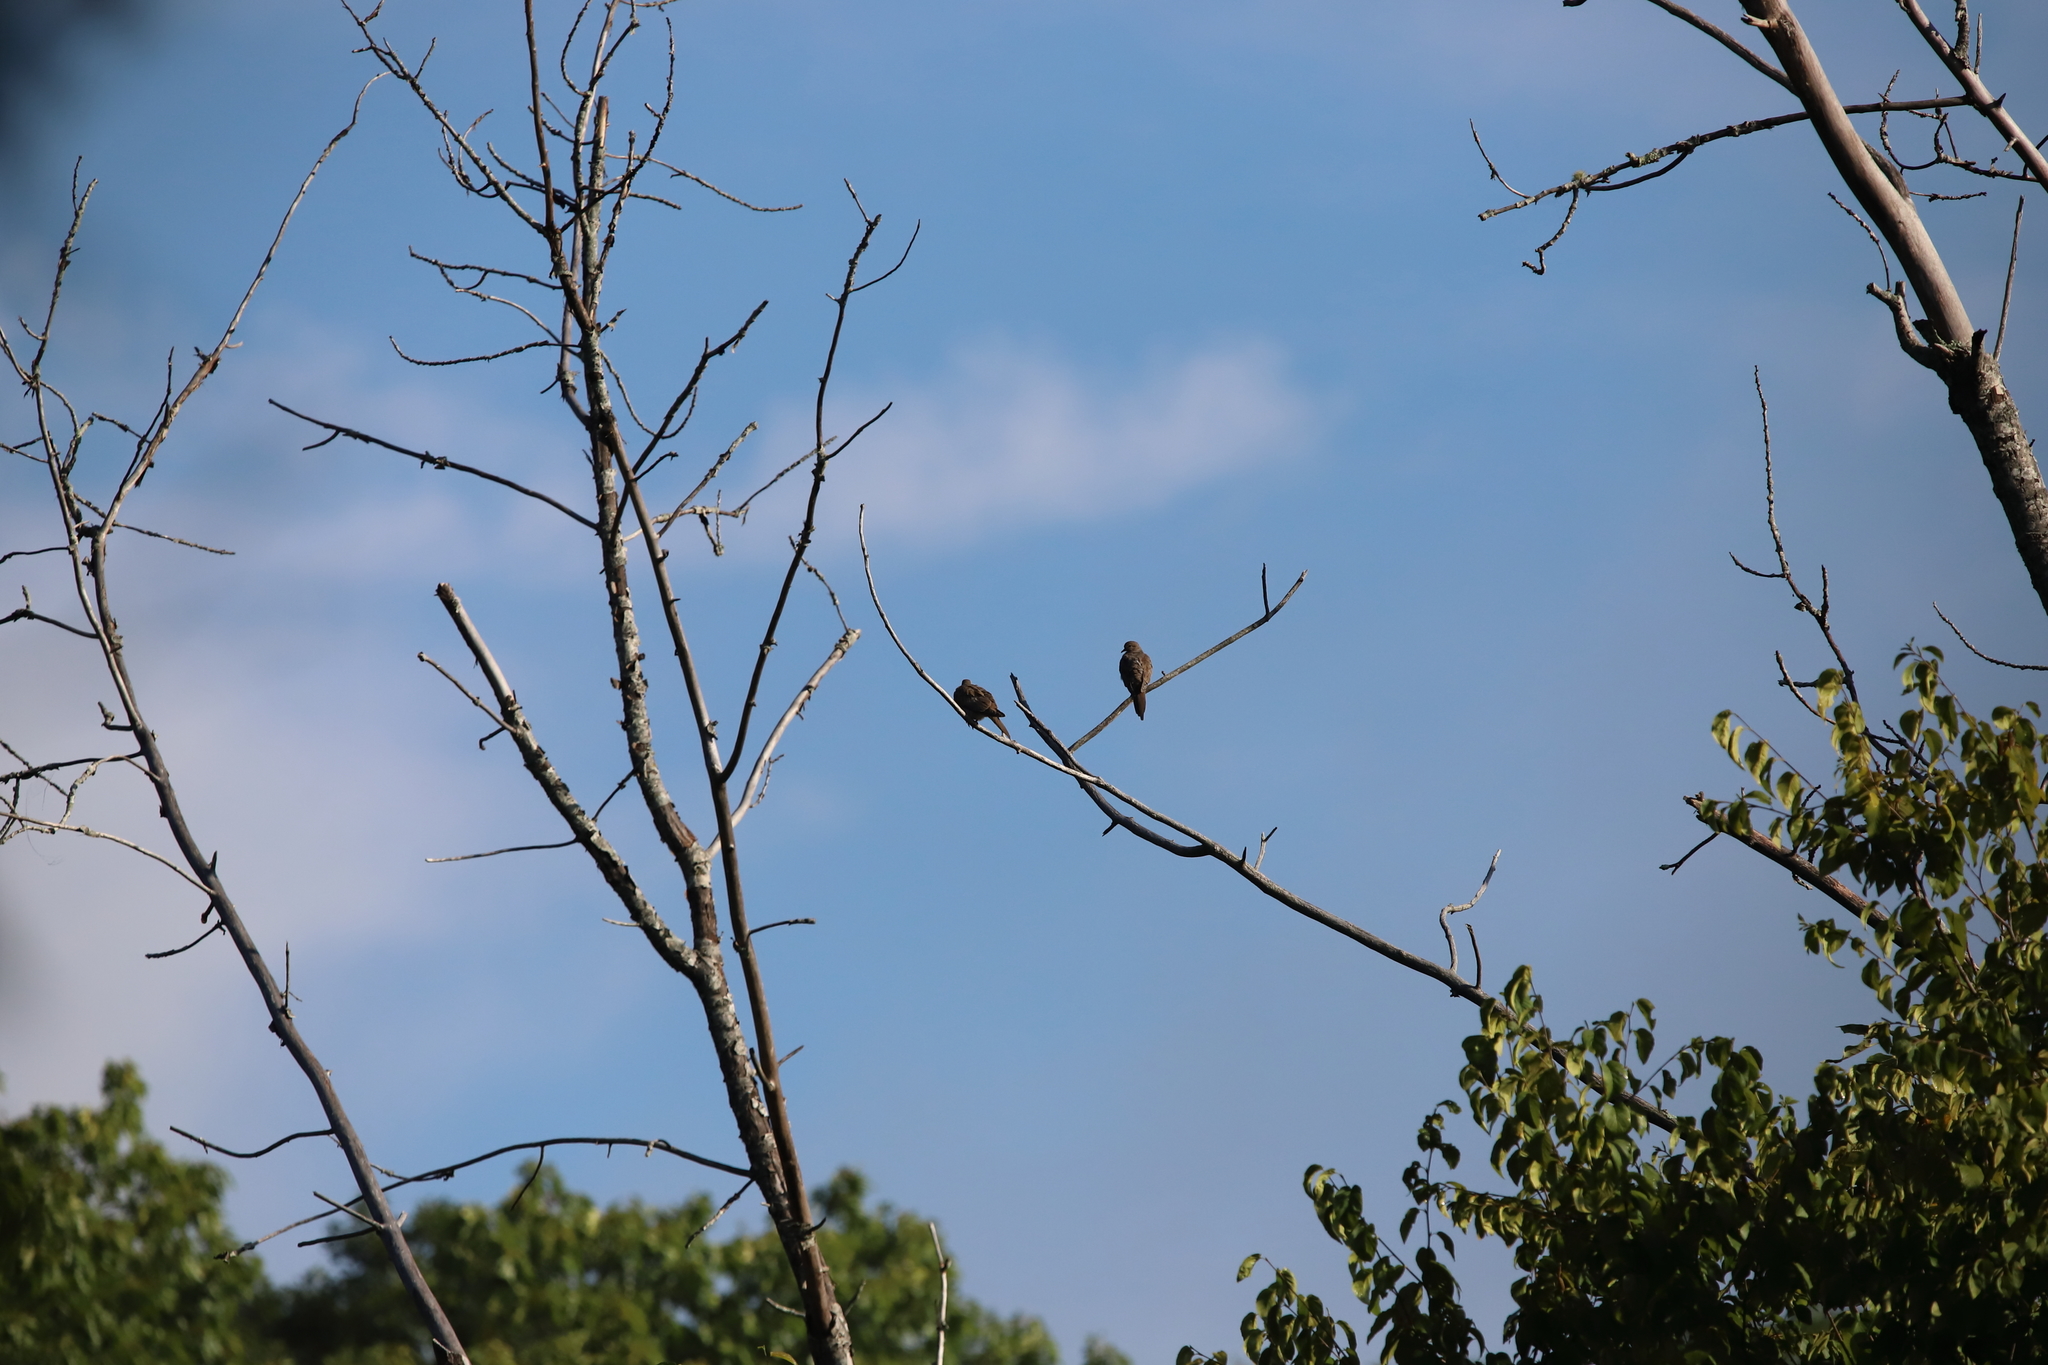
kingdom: Animalia
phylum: Chordata
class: Aves
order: Columbiformes
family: Columbidae
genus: Zenaida
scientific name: Zenaida macroura
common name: Mourning dove
